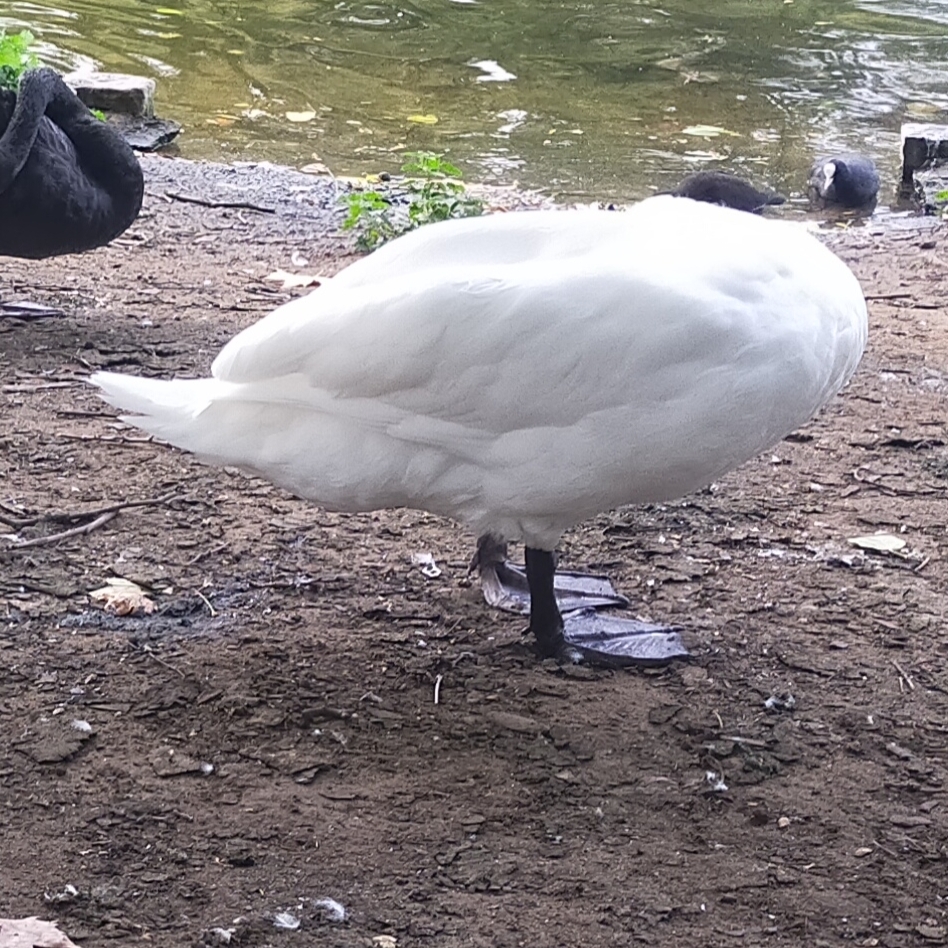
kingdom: Animalia
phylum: Chordata
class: Aves
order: Anseriformes
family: Anatidae
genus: Cygnus
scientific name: Cygnus olor
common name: Mute swan
